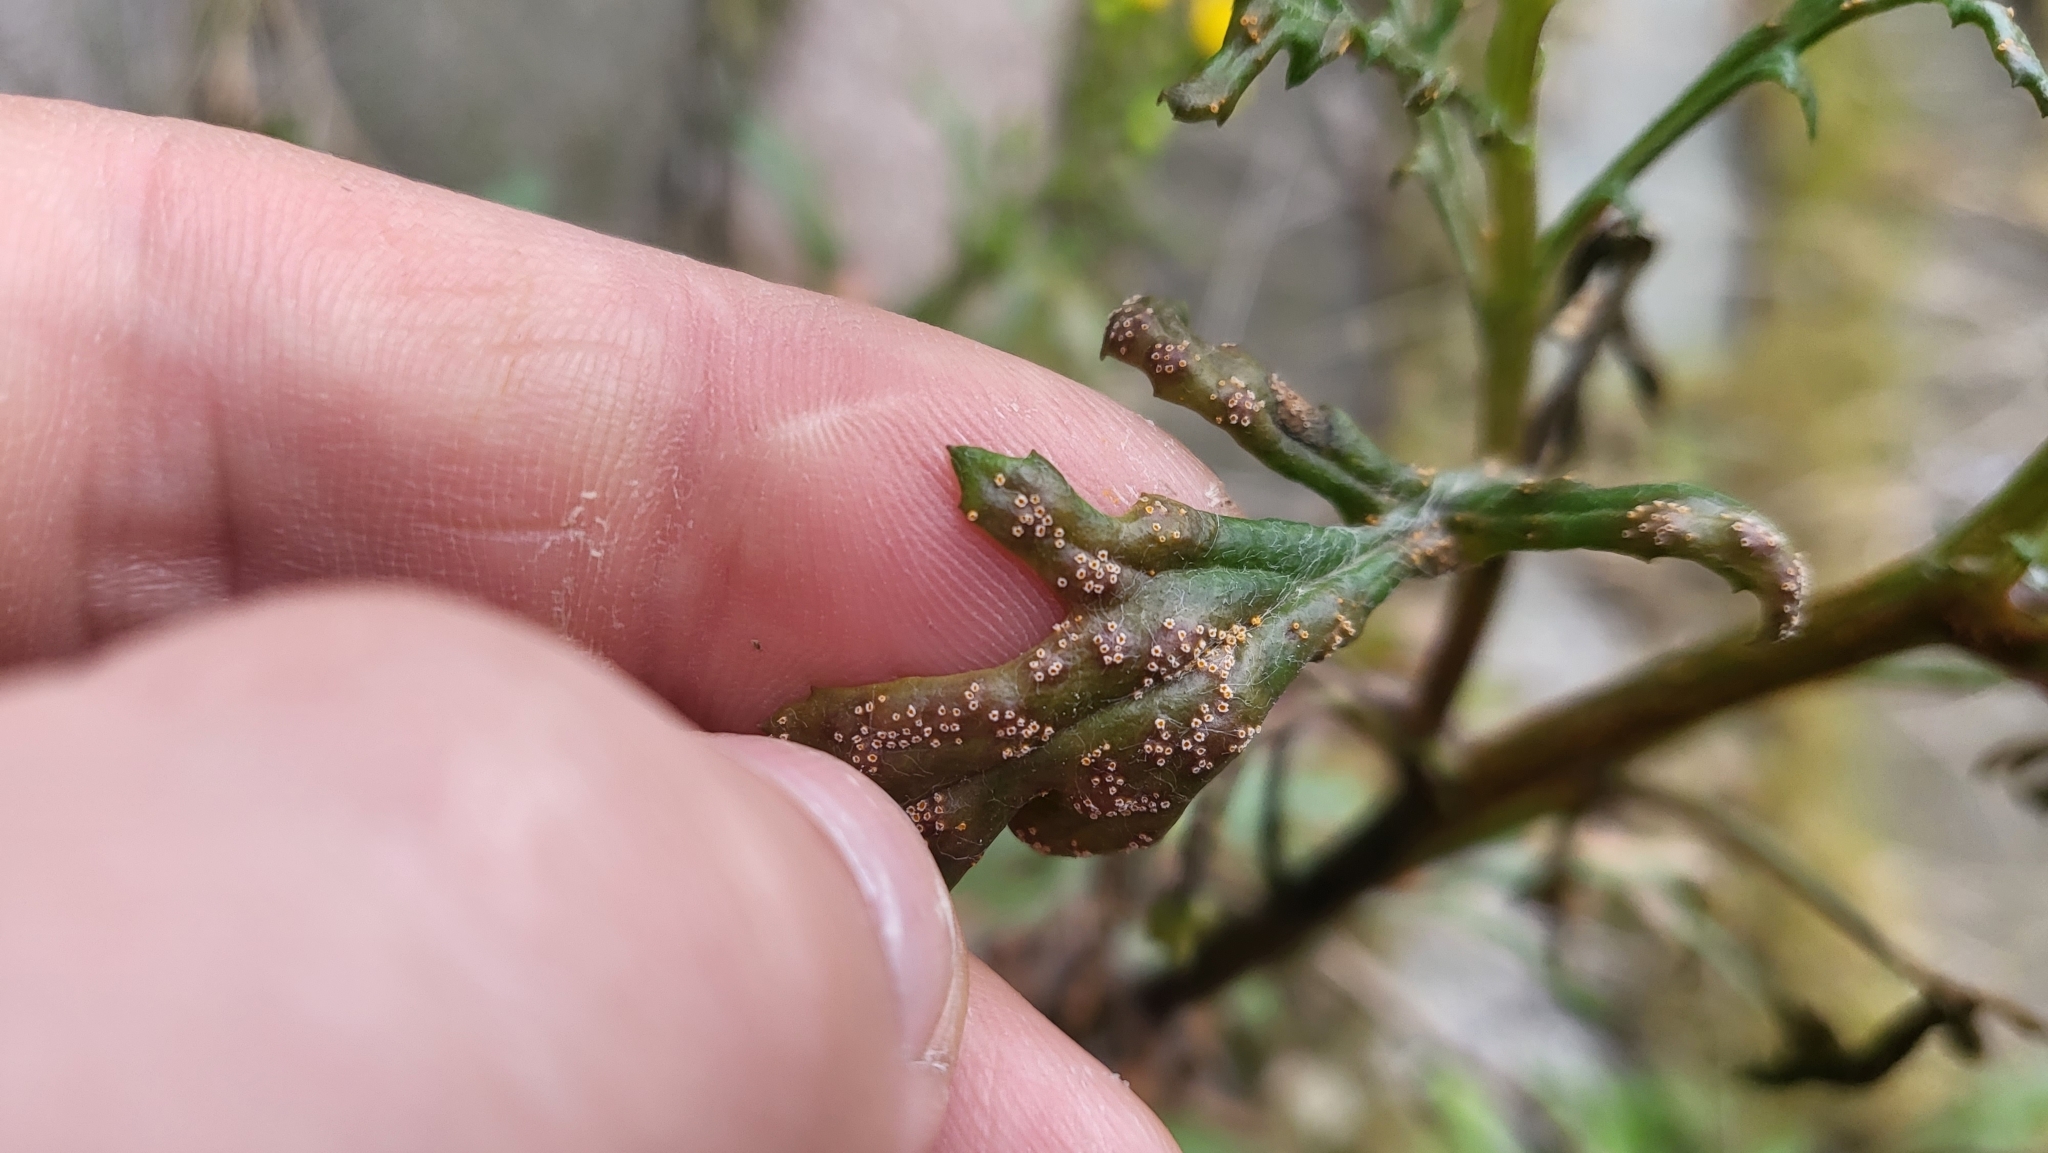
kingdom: Fungi
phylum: Basidiomycota
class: Pucciniomycetes
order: Pucciniales
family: Pucciniaceae
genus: Puccinia
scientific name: Puccinia lagenophorae
